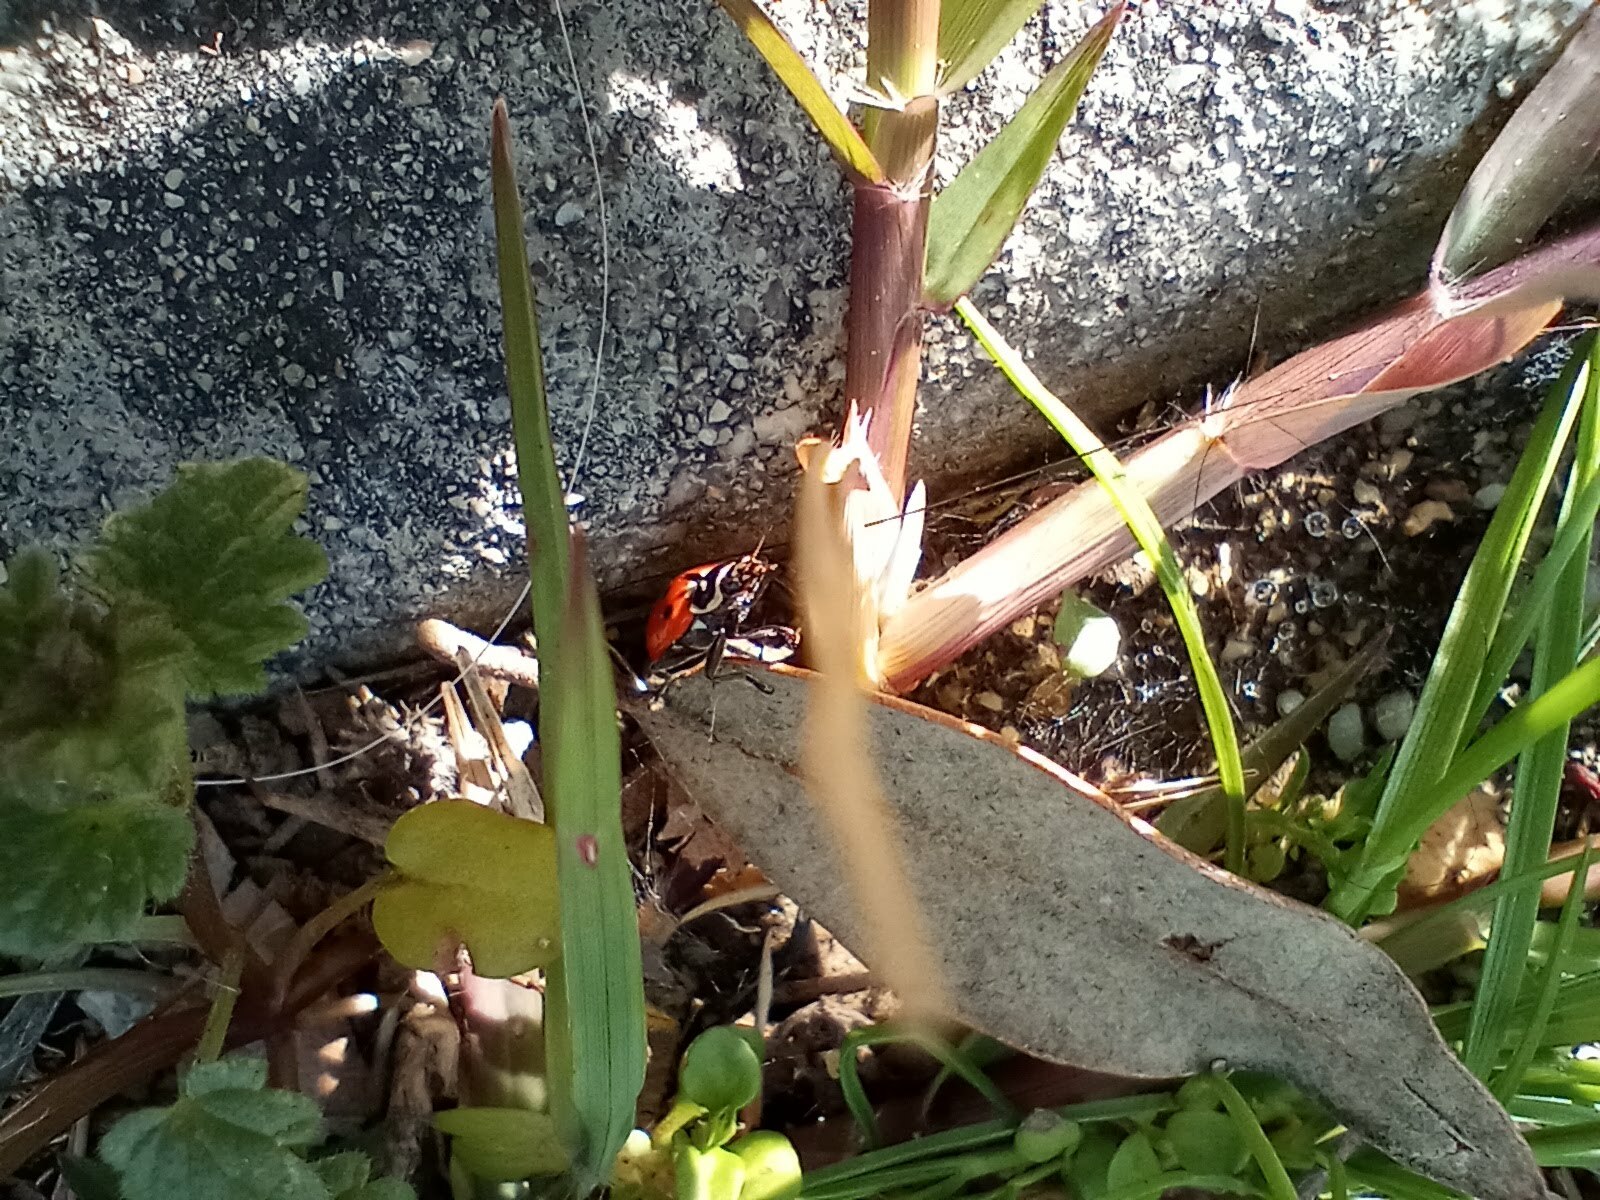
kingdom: Animalia
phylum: Arthropoda
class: Insecta
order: Coleoptera
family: Coccinellidae
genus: Hippodamia
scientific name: Hippodamia convergens
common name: Convergent lady beetle
